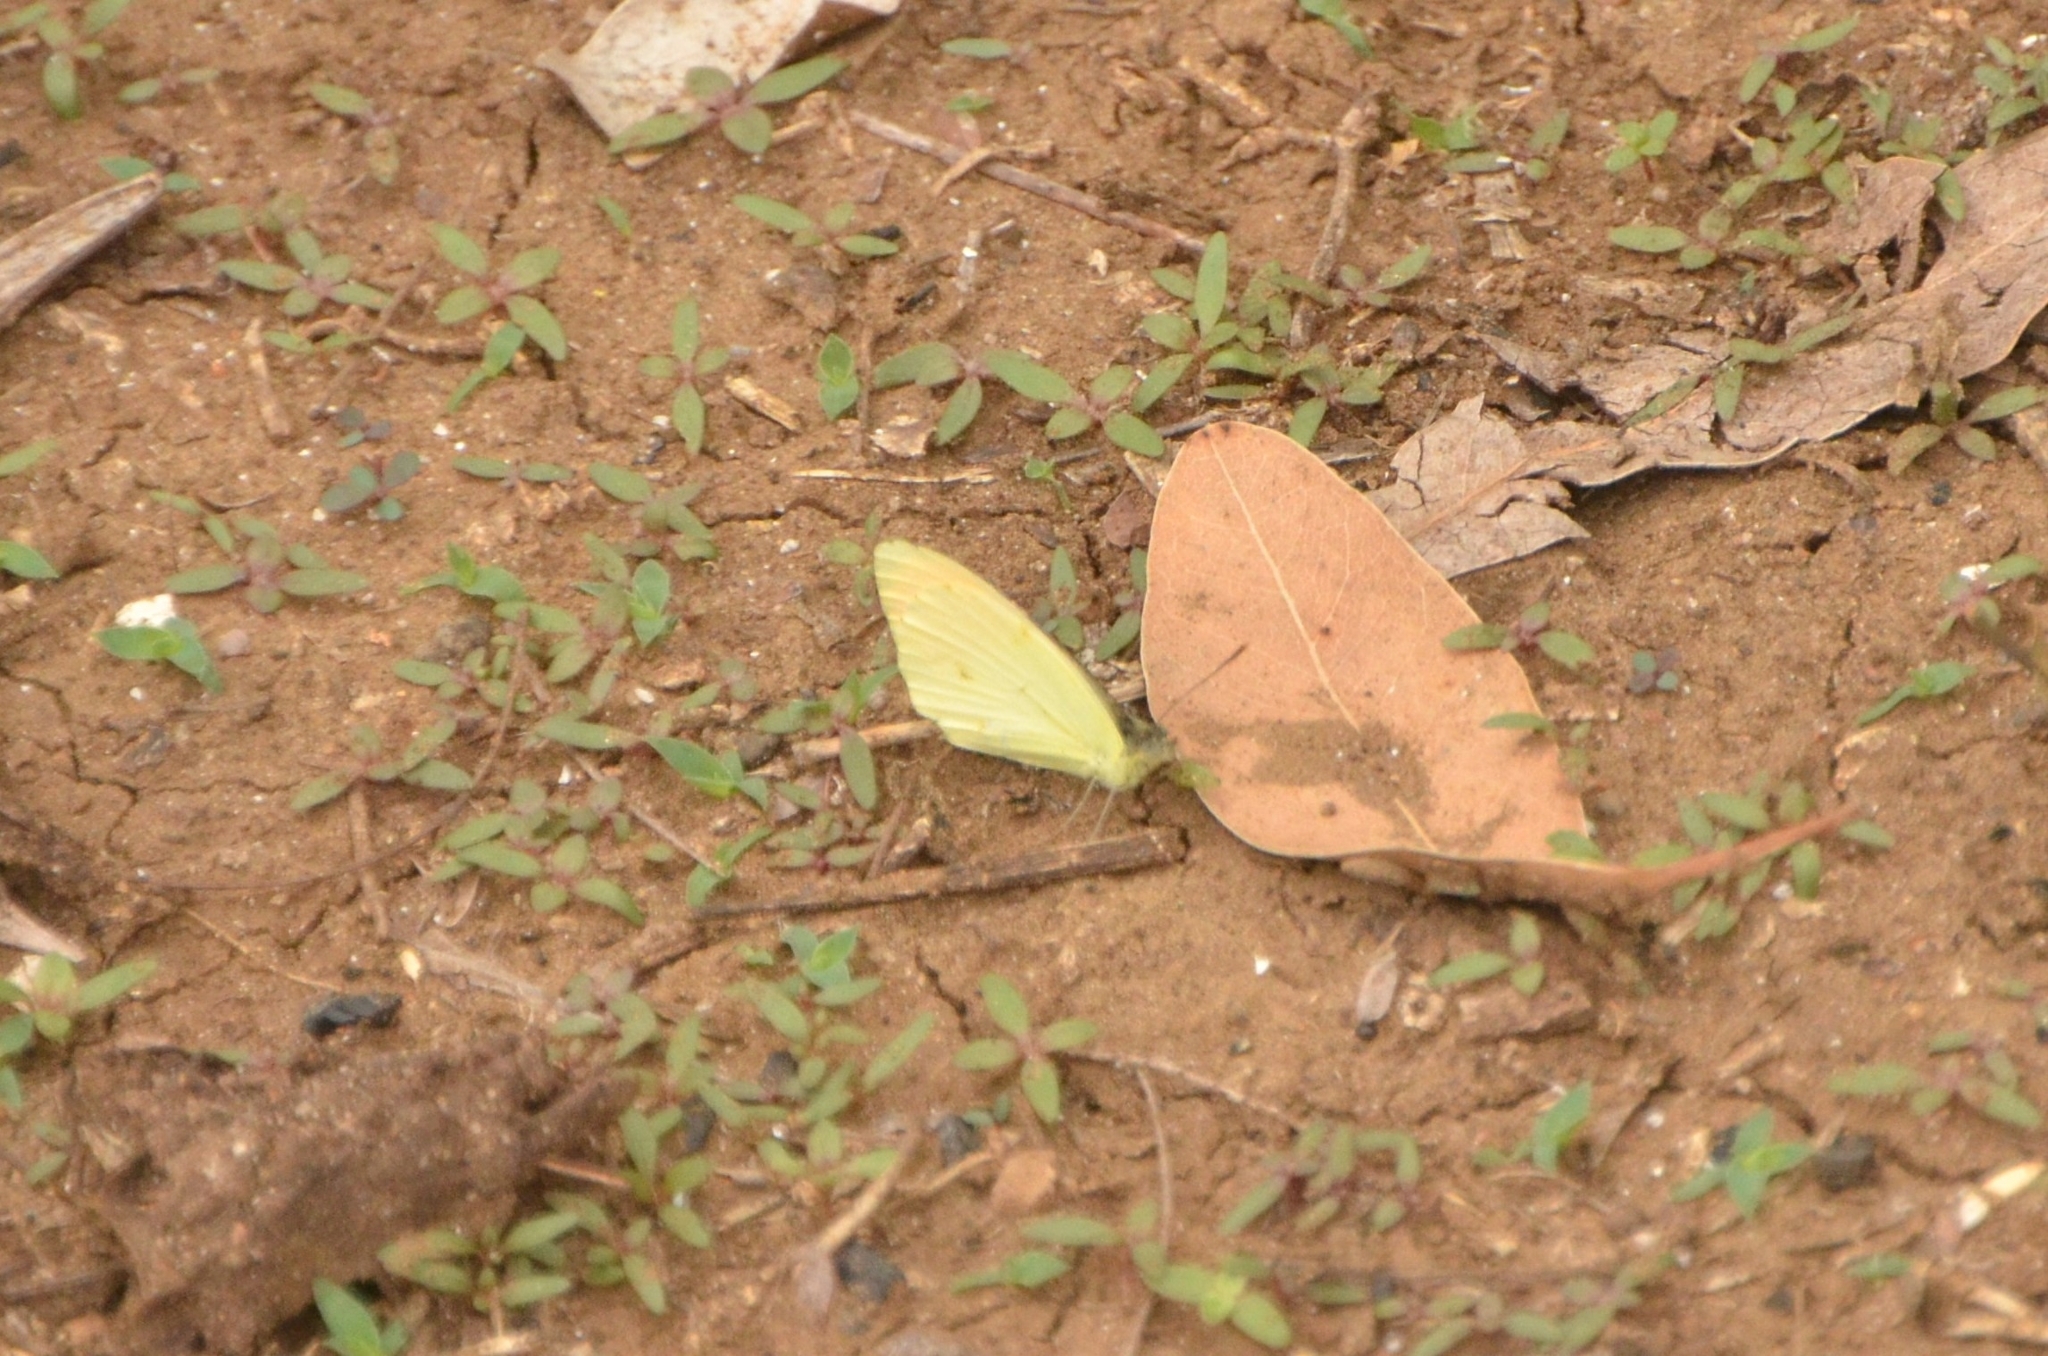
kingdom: Animalia
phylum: Arthropoda
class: Insecta
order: Lepidoptera
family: Pieridae
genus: Colotis
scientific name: Colotis auxo
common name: Sulphur orange tip
